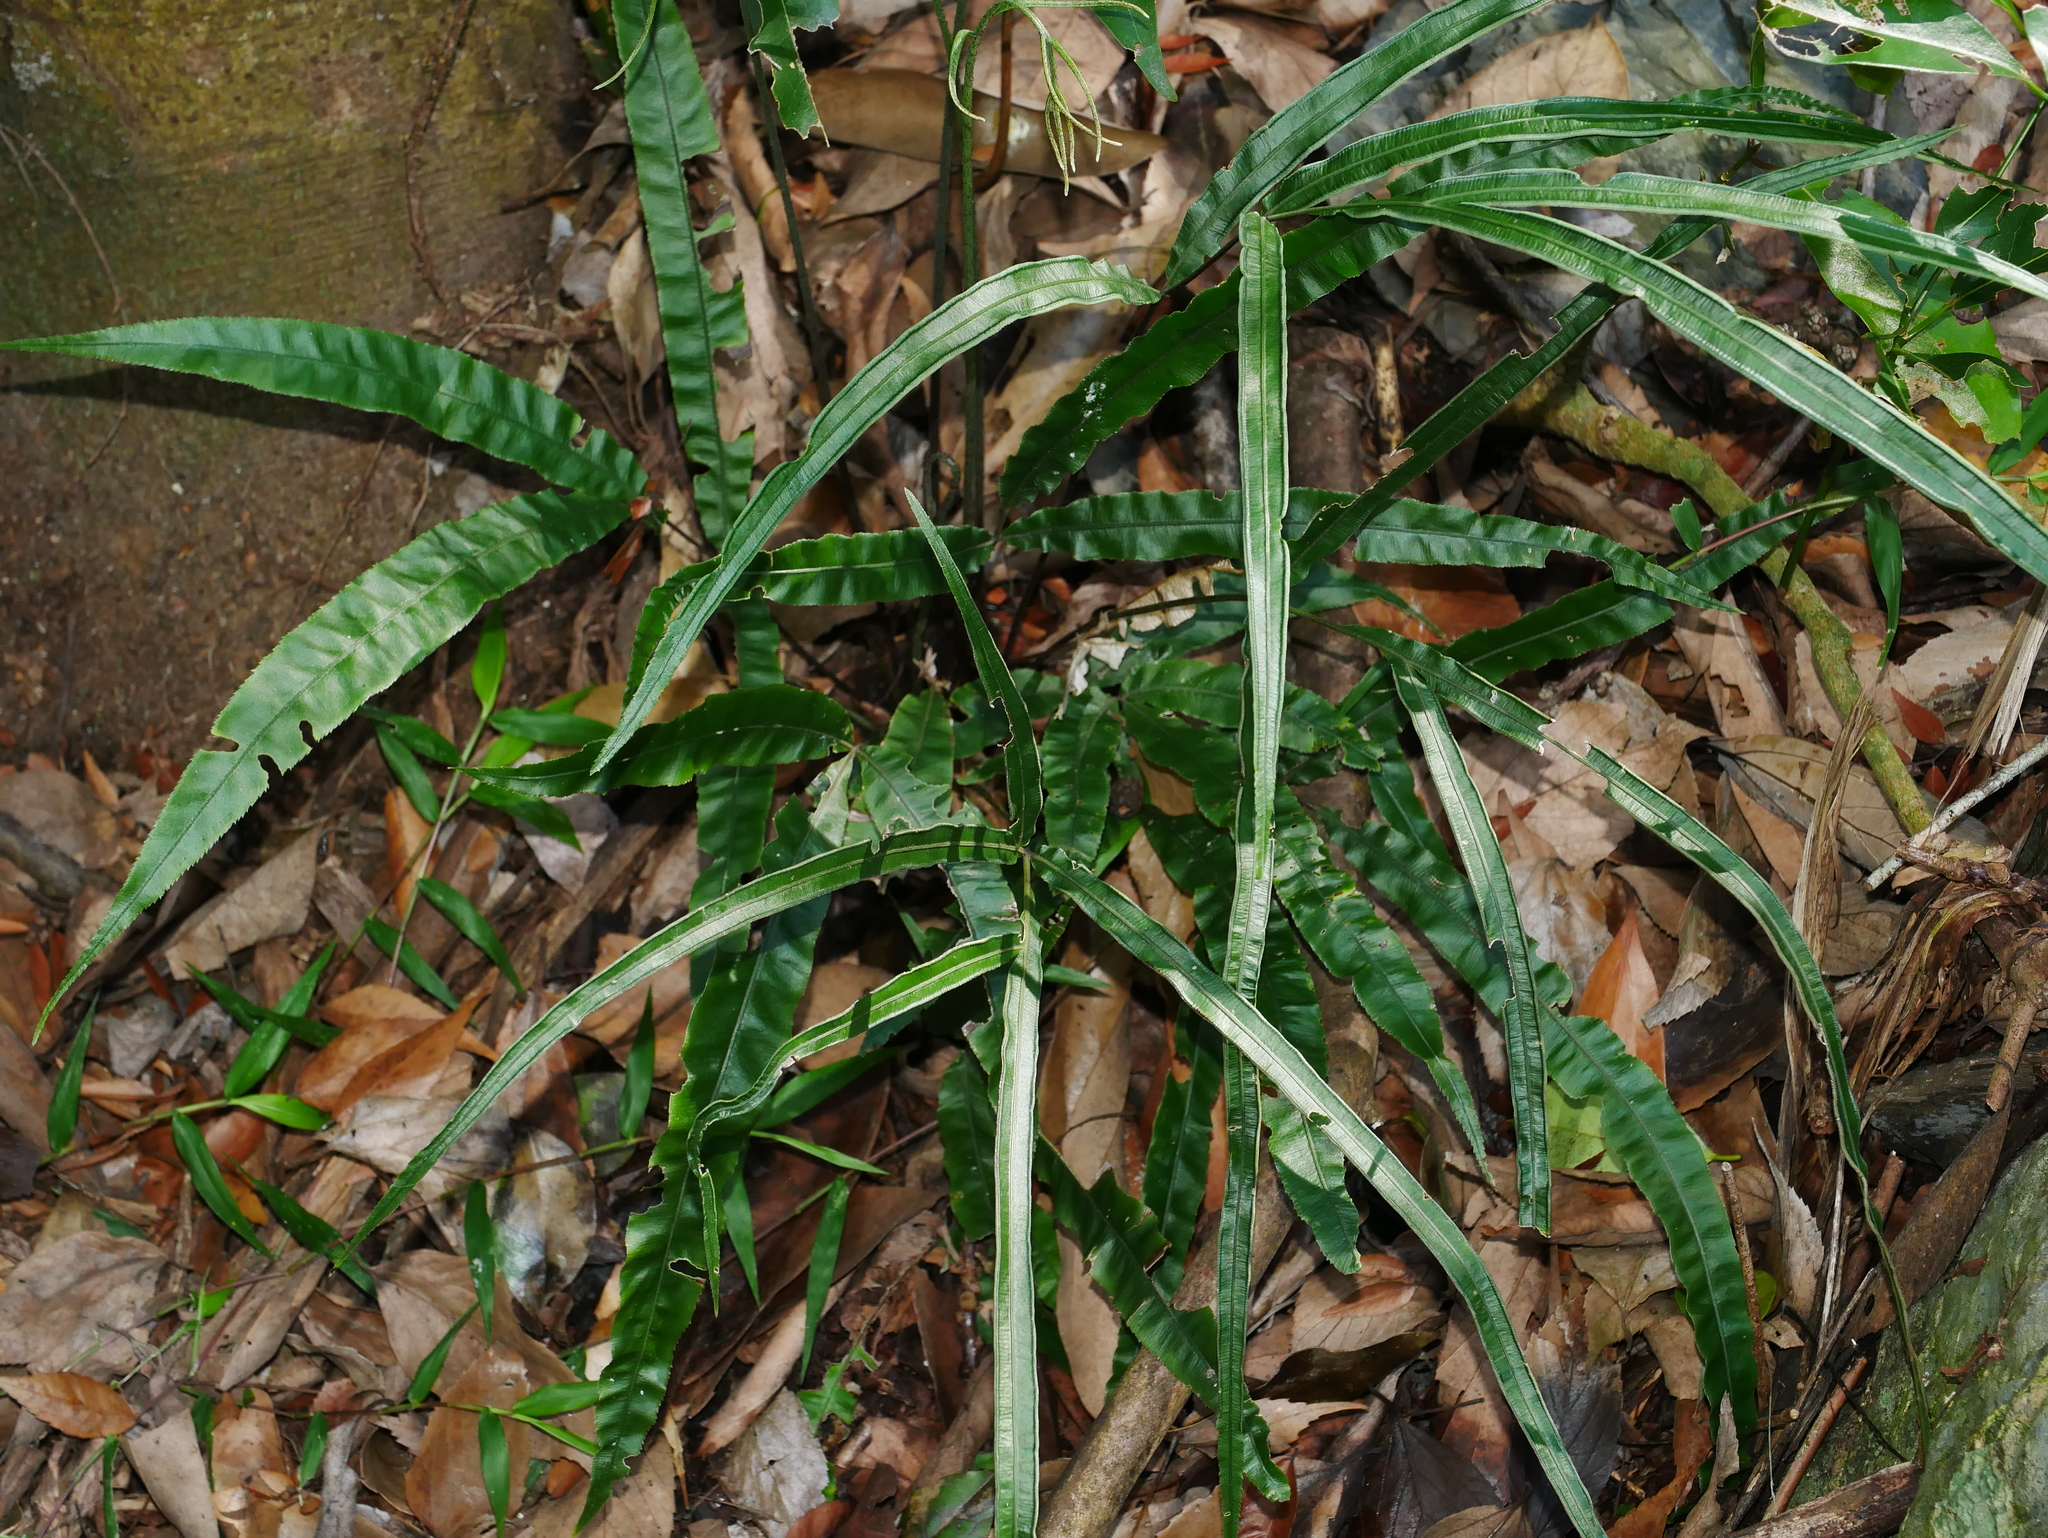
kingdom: Plantae
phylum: Tracheophyta
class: Polypodiopsida
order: Polypodiales
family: Pteridaceae
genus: Pteris
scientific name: Pteris rugosifolia
